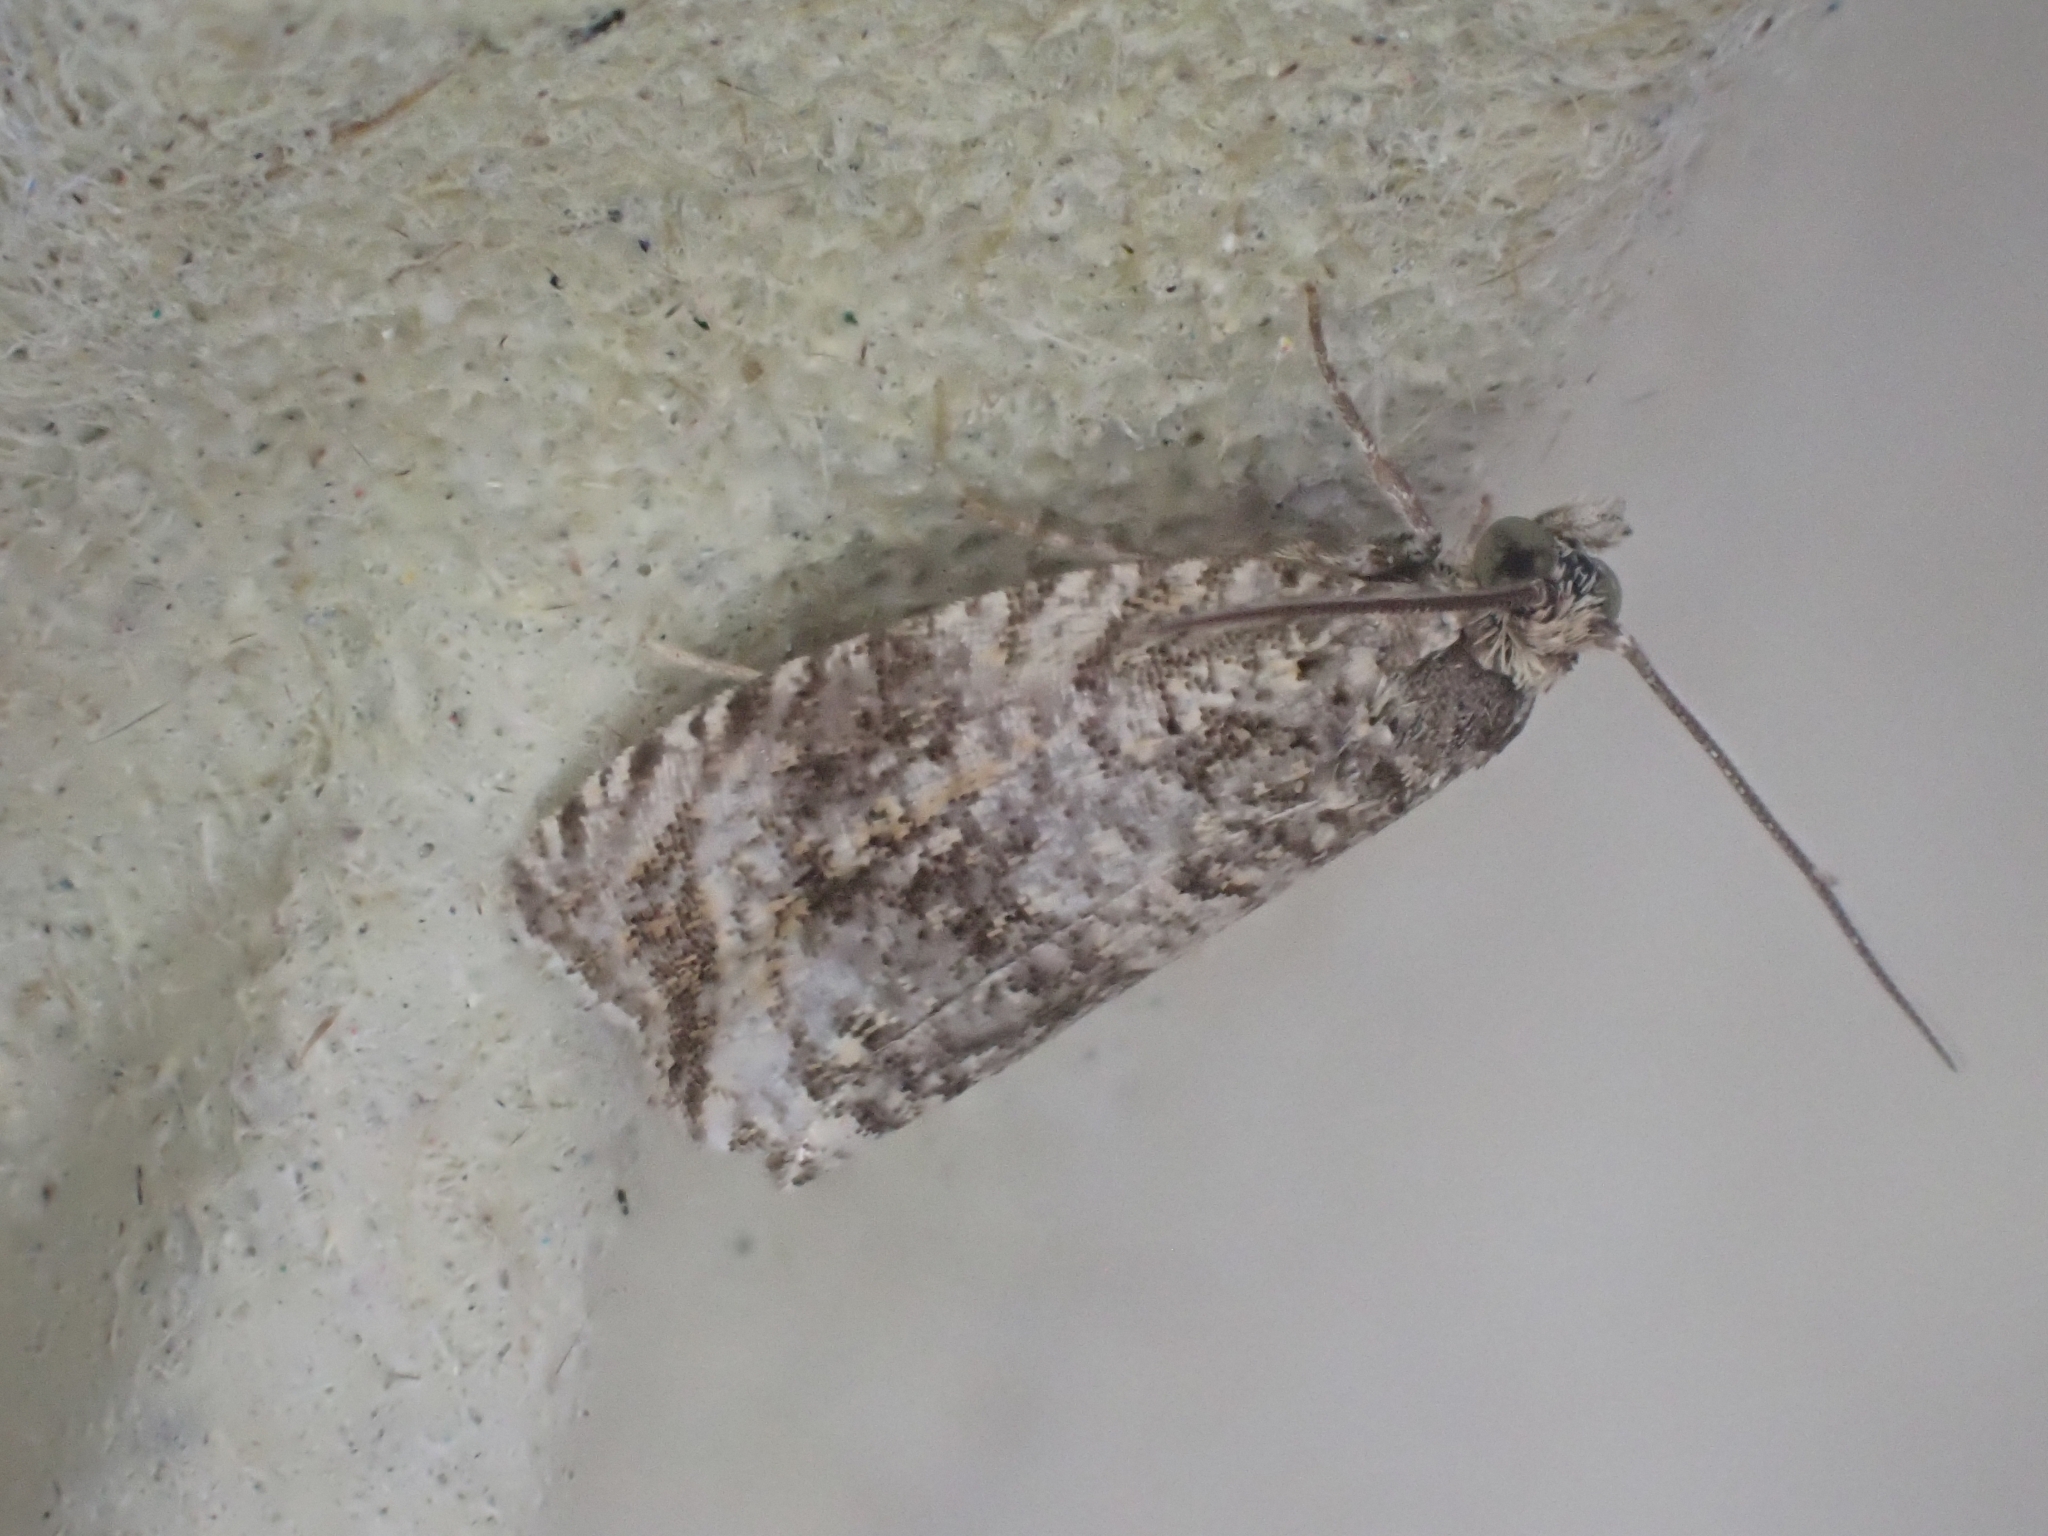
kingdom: Animalia
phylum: Arthropoda
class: Insecta
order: Lepidoptera
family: Tortricidae
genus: Syricoris
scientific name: Syricoris lacunana
